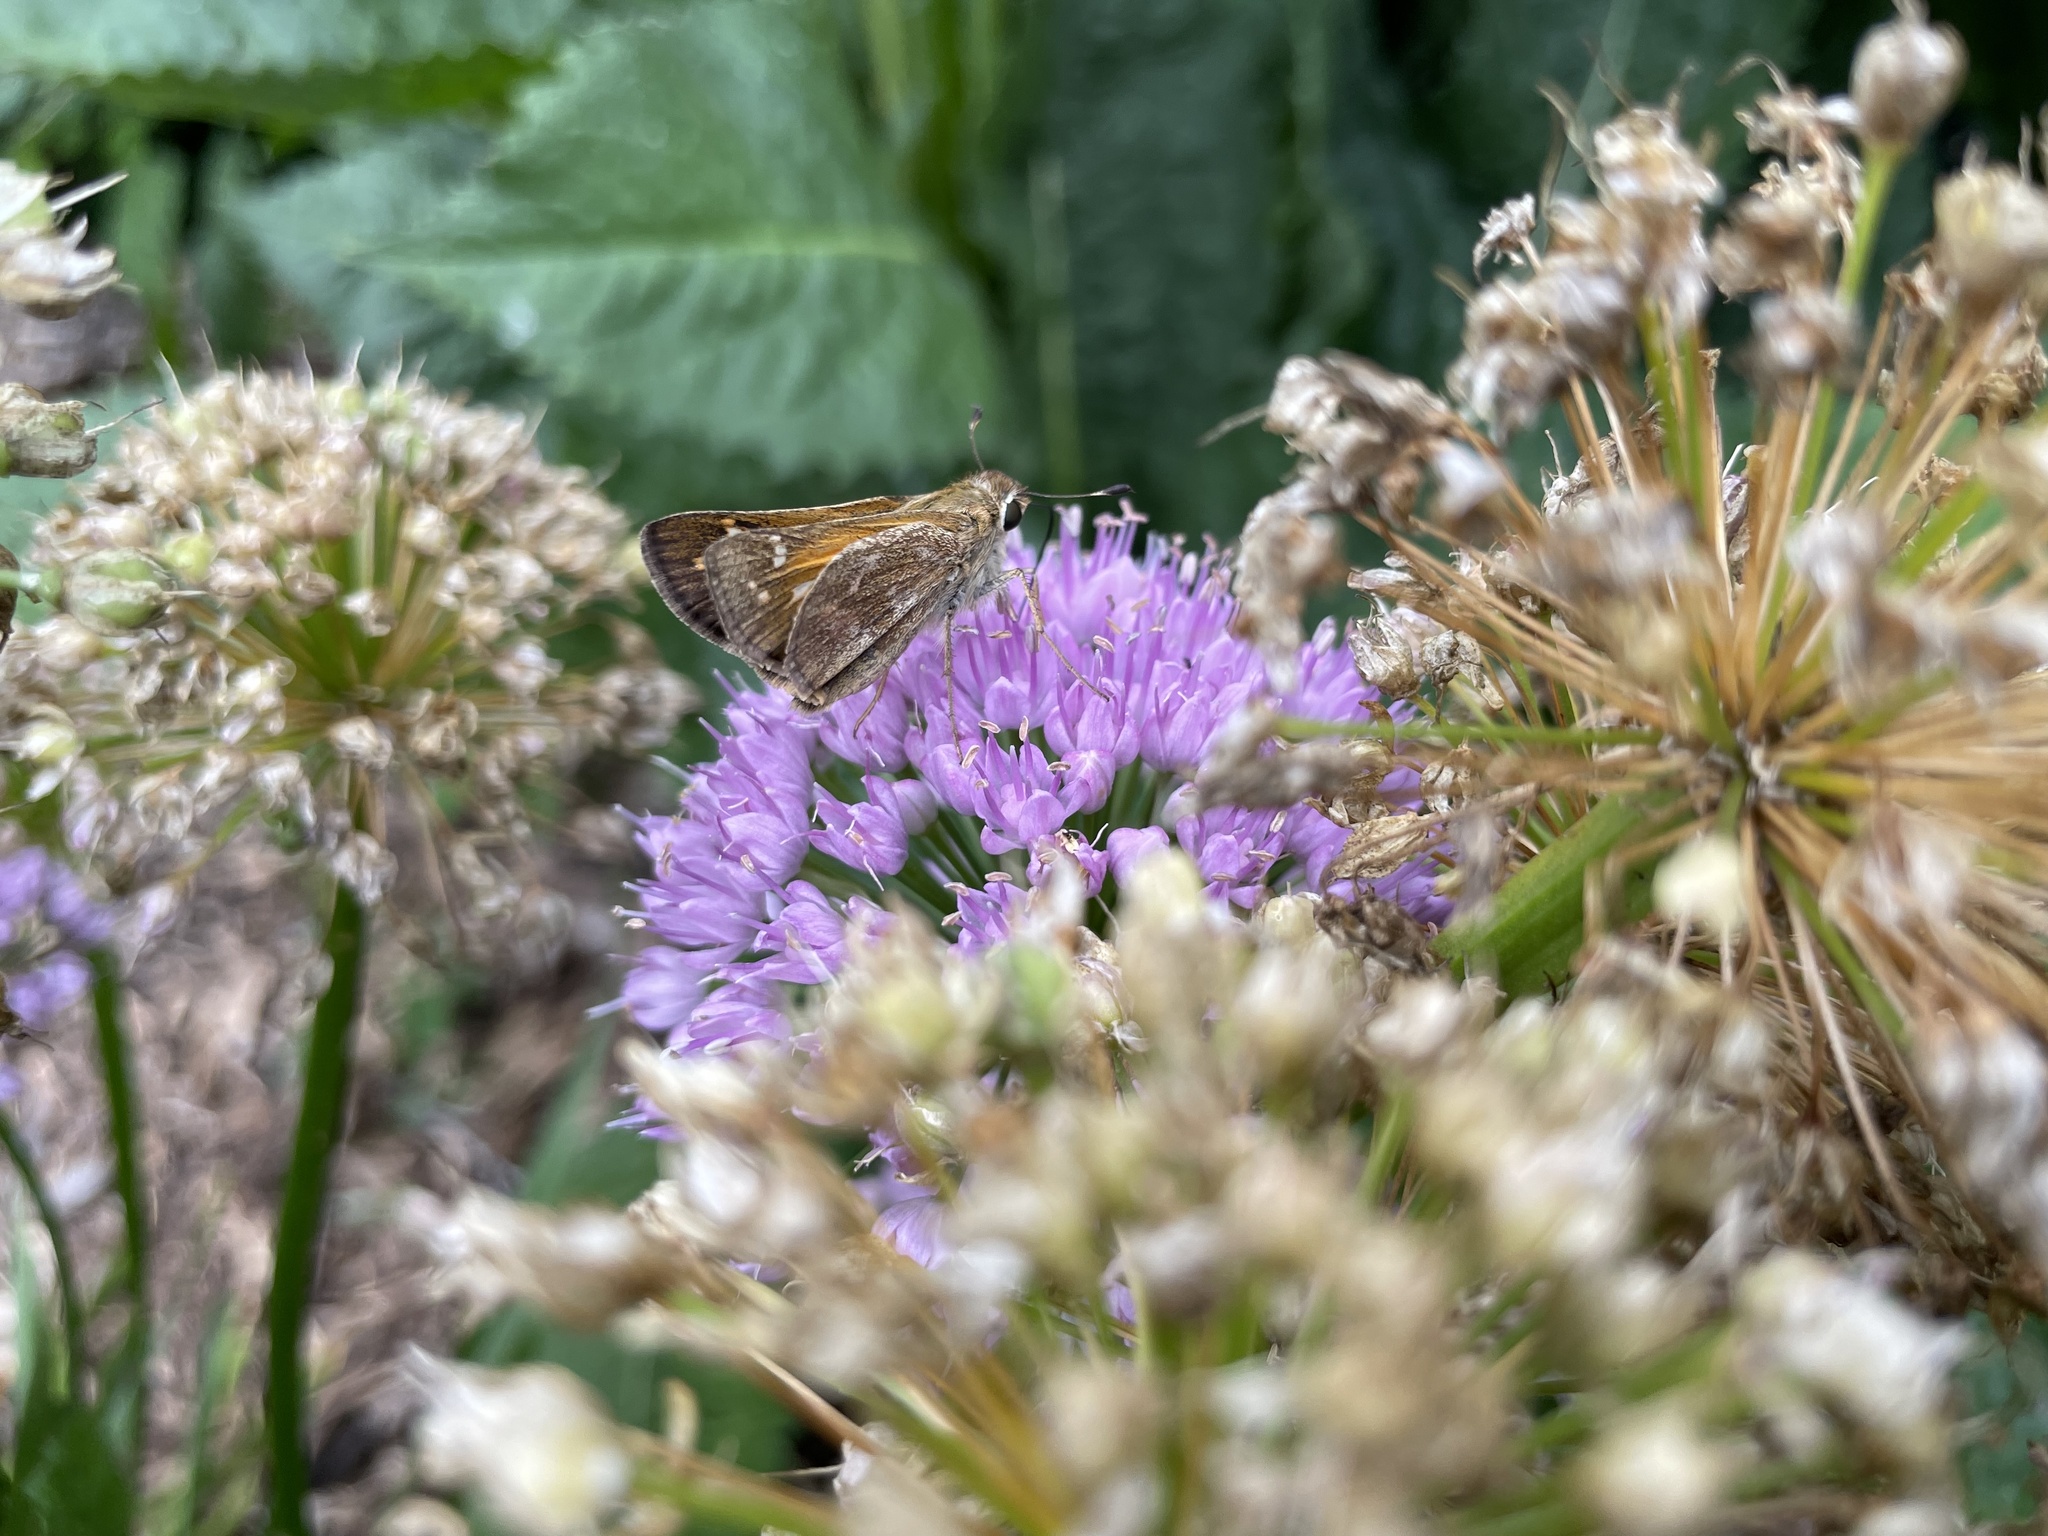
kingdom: Animalia
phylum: Arthropoda
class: Insecta
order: Lepidoptera
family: Hesperiidae
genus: Atalopedes
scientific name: Atalopedes
